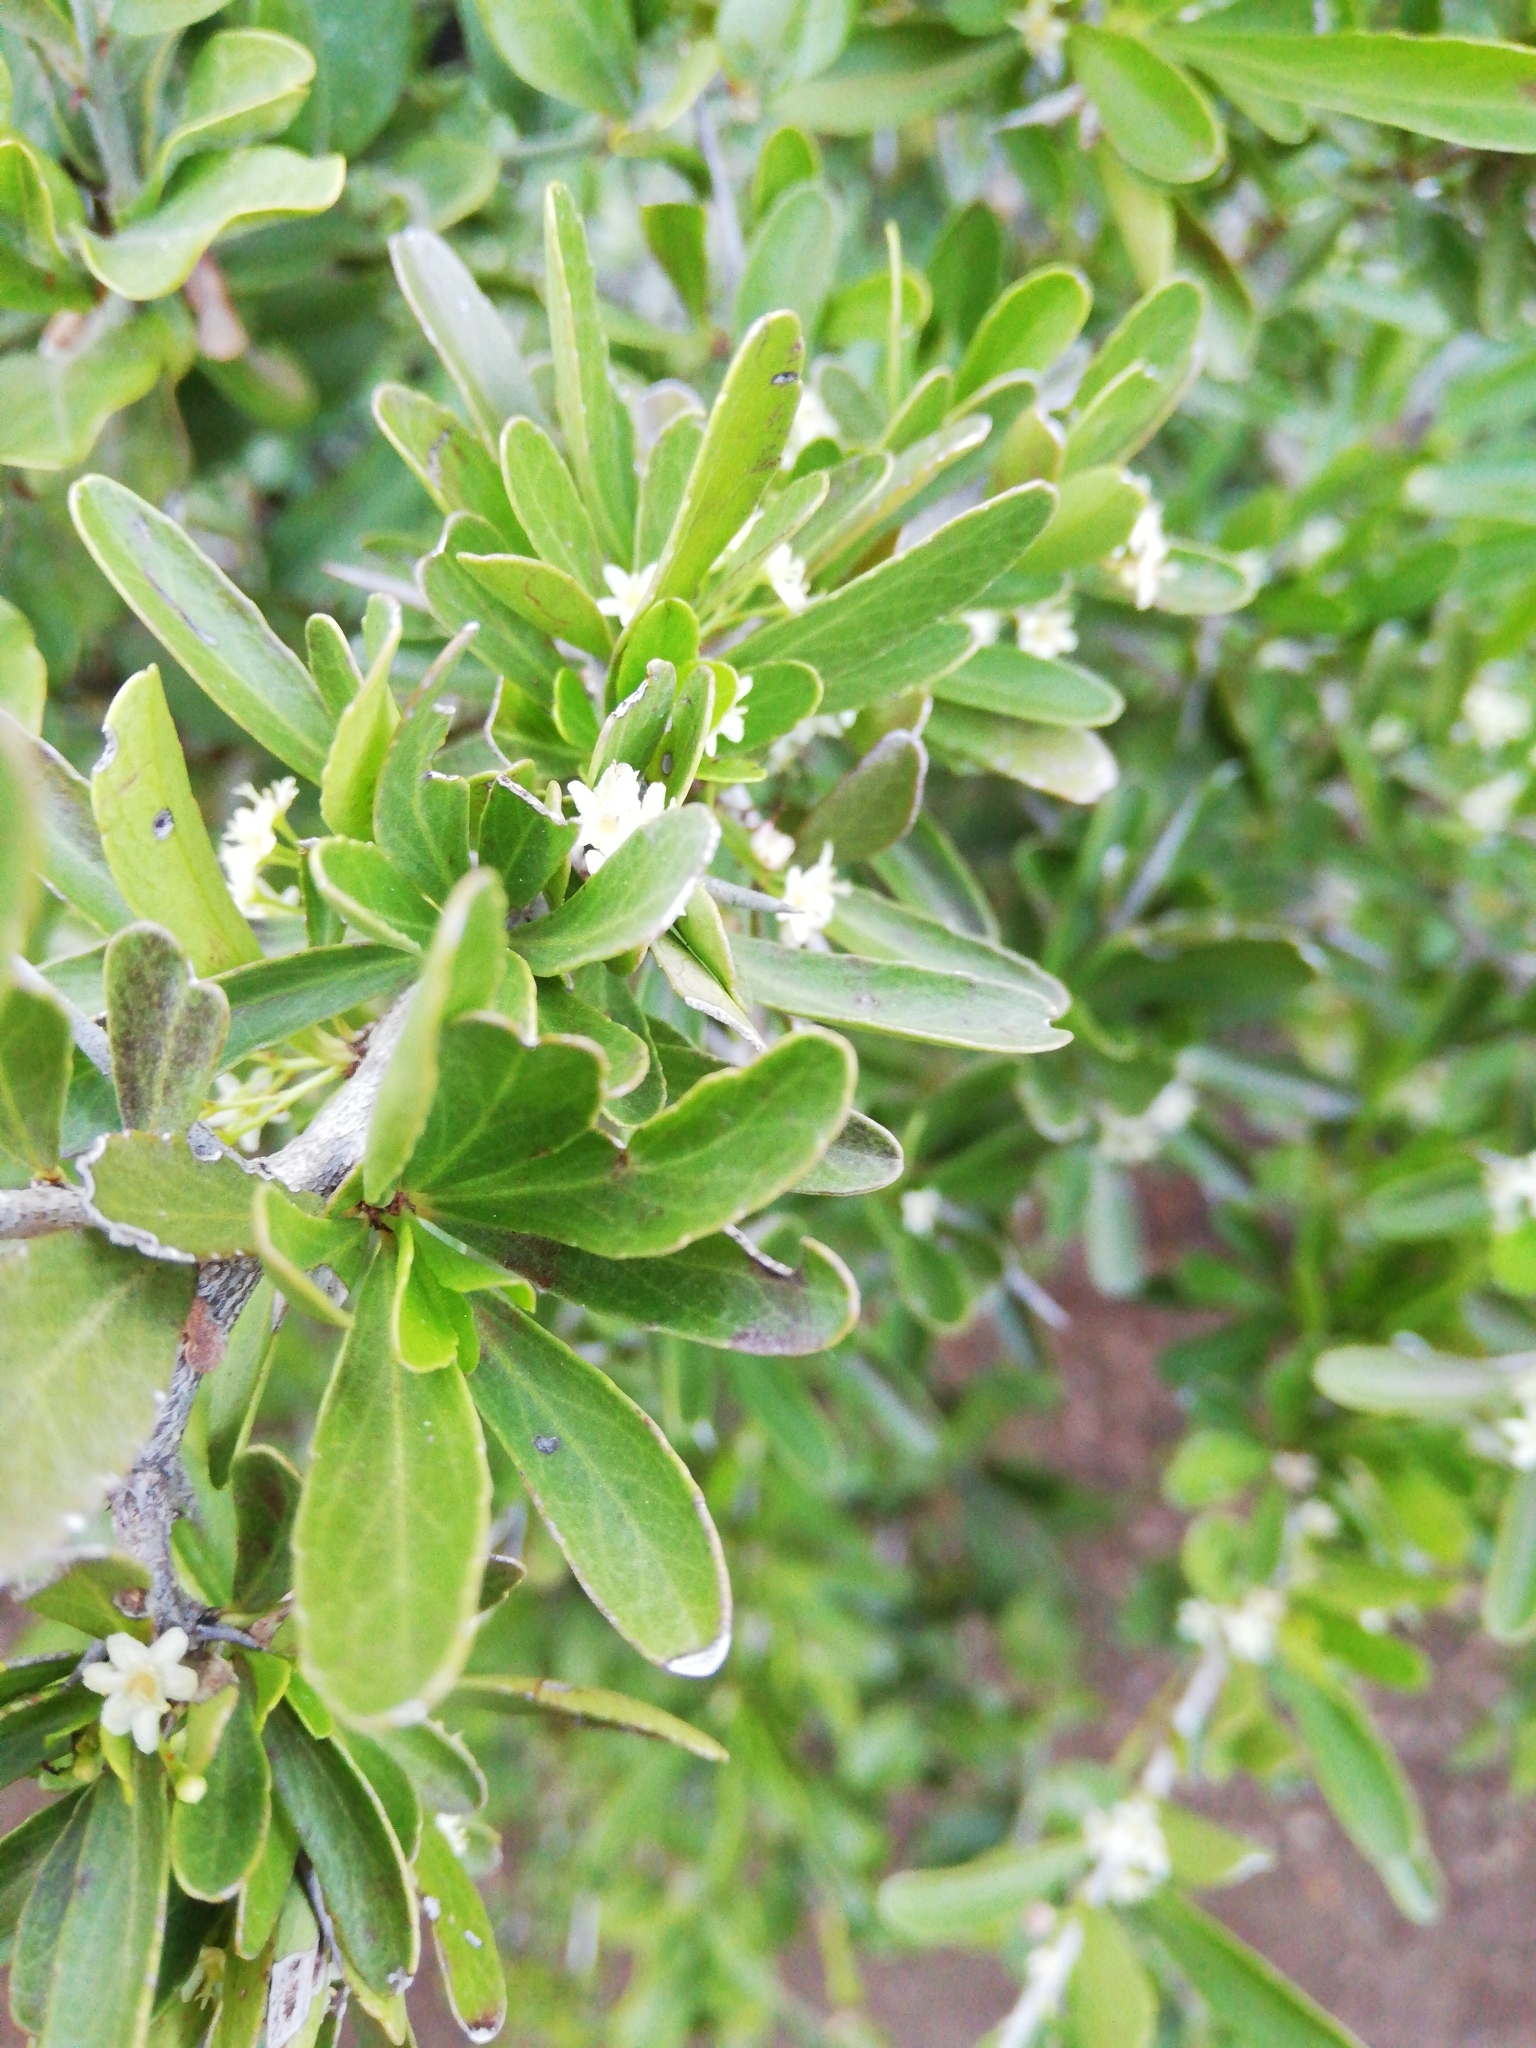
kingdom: Plantae
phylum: Tracheophyta
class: Magnoliopsida
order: Celastrales
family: Celastraceae
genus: Gymnosporia
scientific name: Gymnosporia polyacantha
